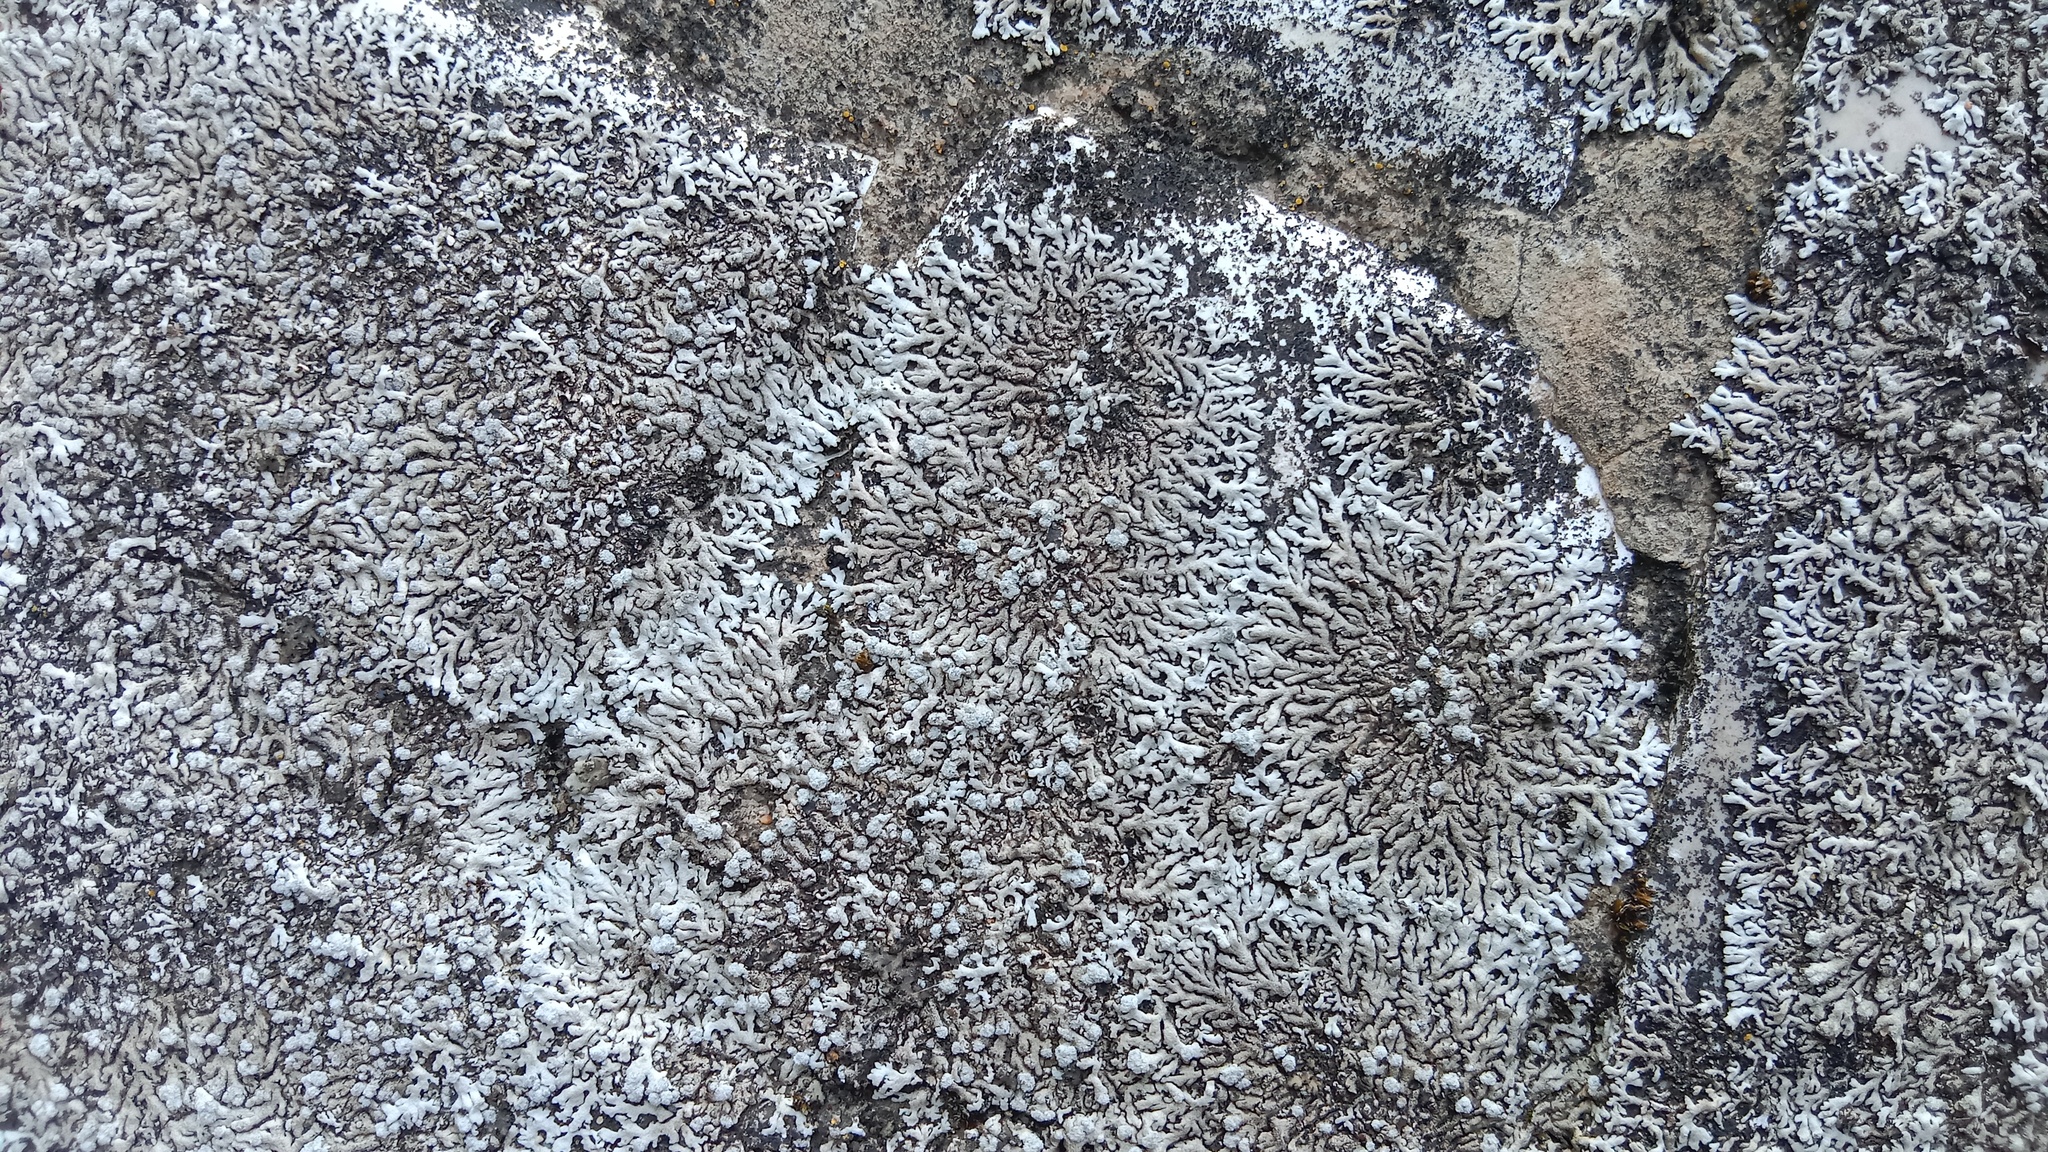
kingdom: Fungi
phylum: Ascomycota
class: Lecanoromycetes
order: Caliciales
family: Physciaceae
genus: Physcia
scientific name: Physcia caesia
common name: Blue-gray rosette lichen
